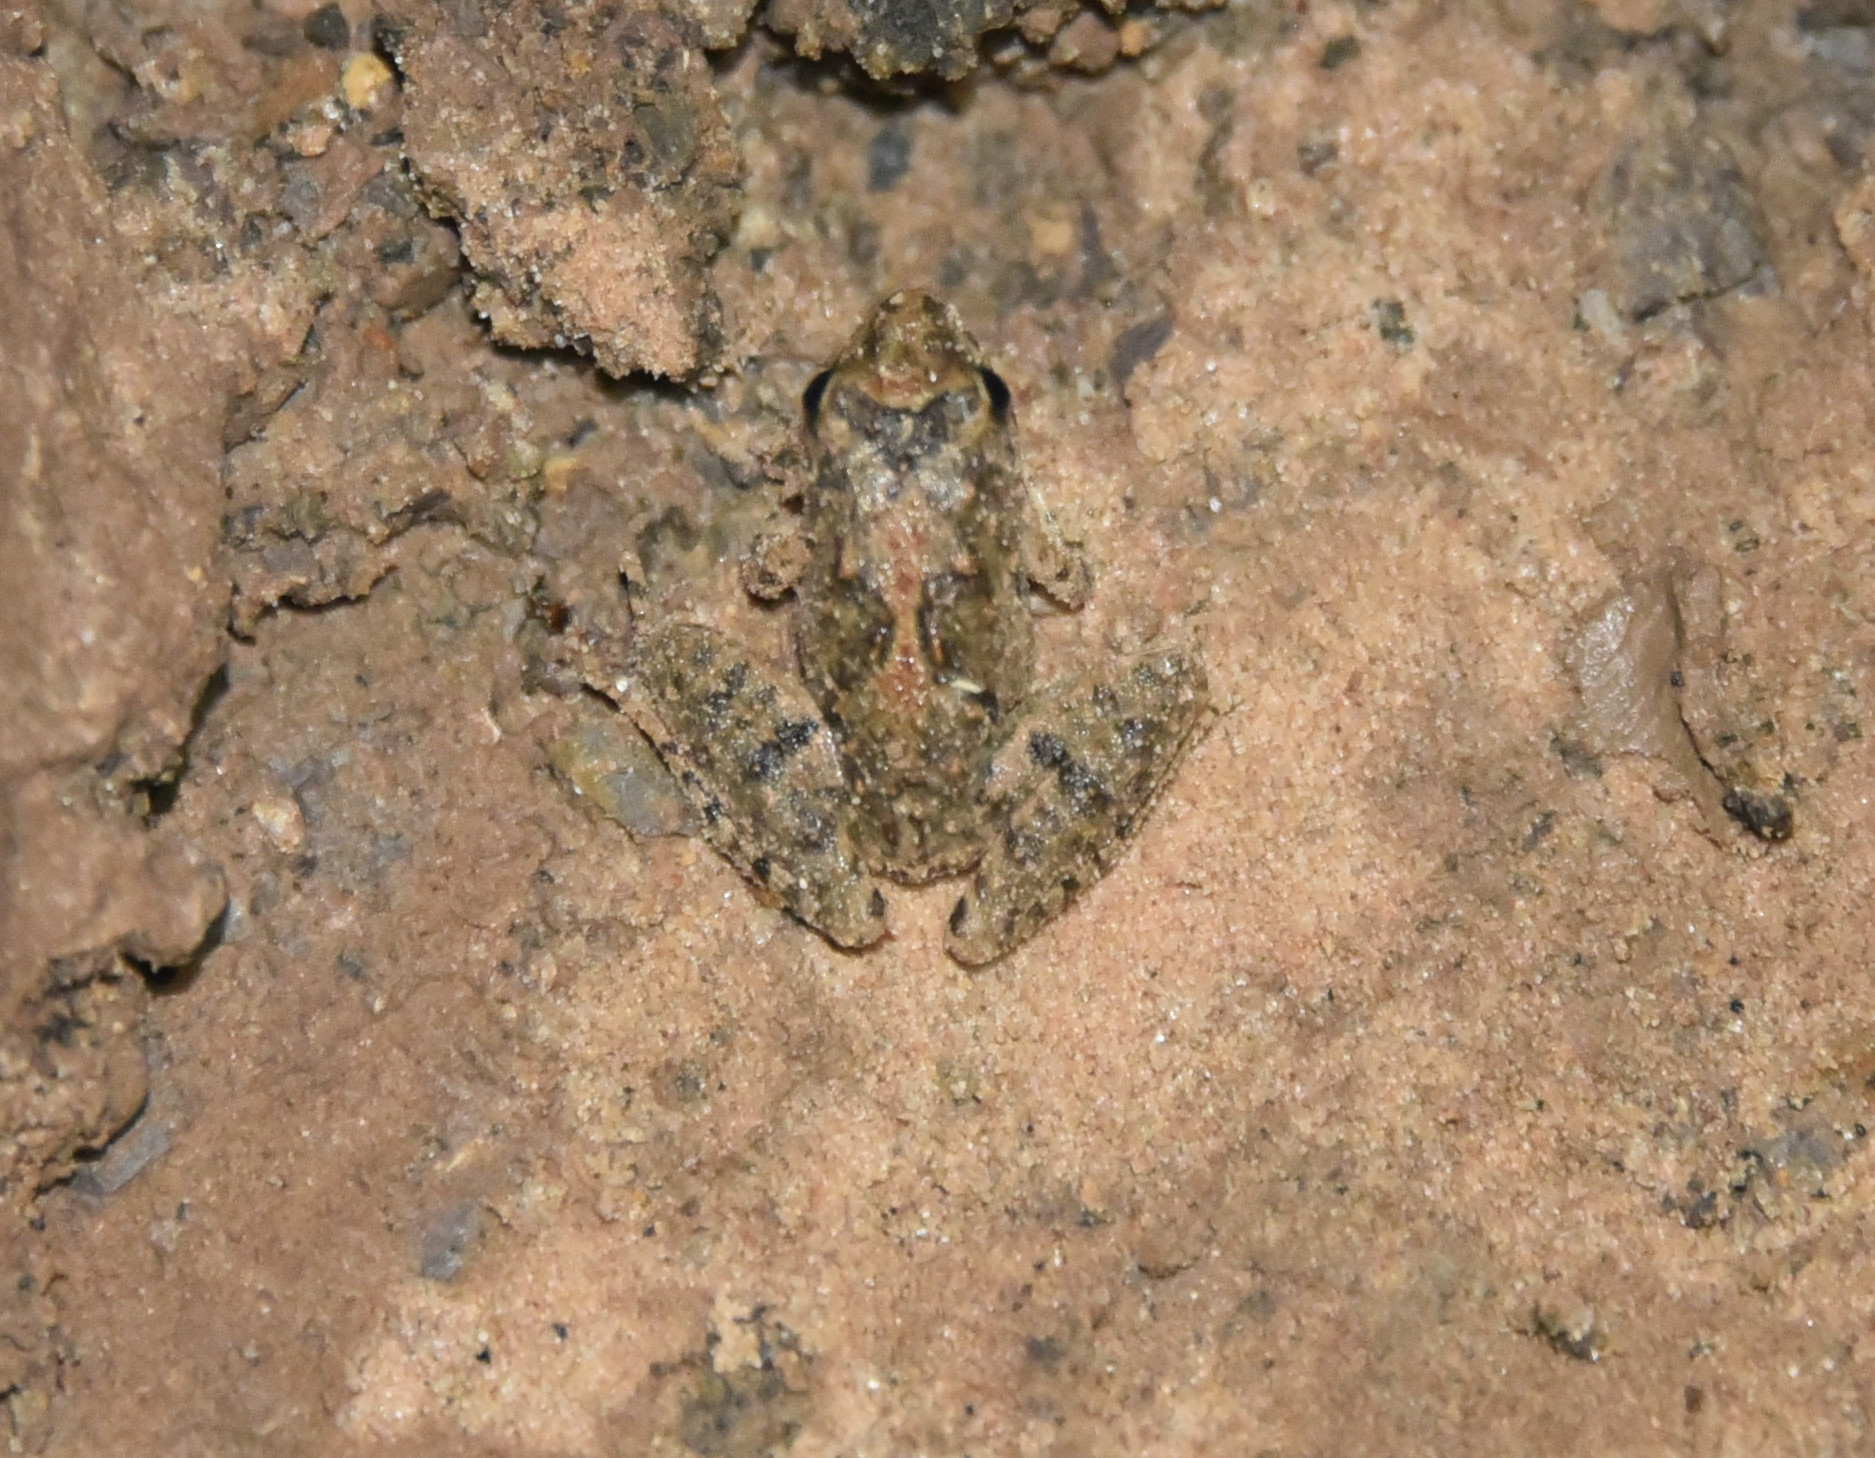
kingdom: Animalia
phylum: Chordata
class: Amphibia
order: Anura
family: Hylidae
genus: Acris
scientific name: Acris blanchardi
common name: Blanchard's cricket frog
